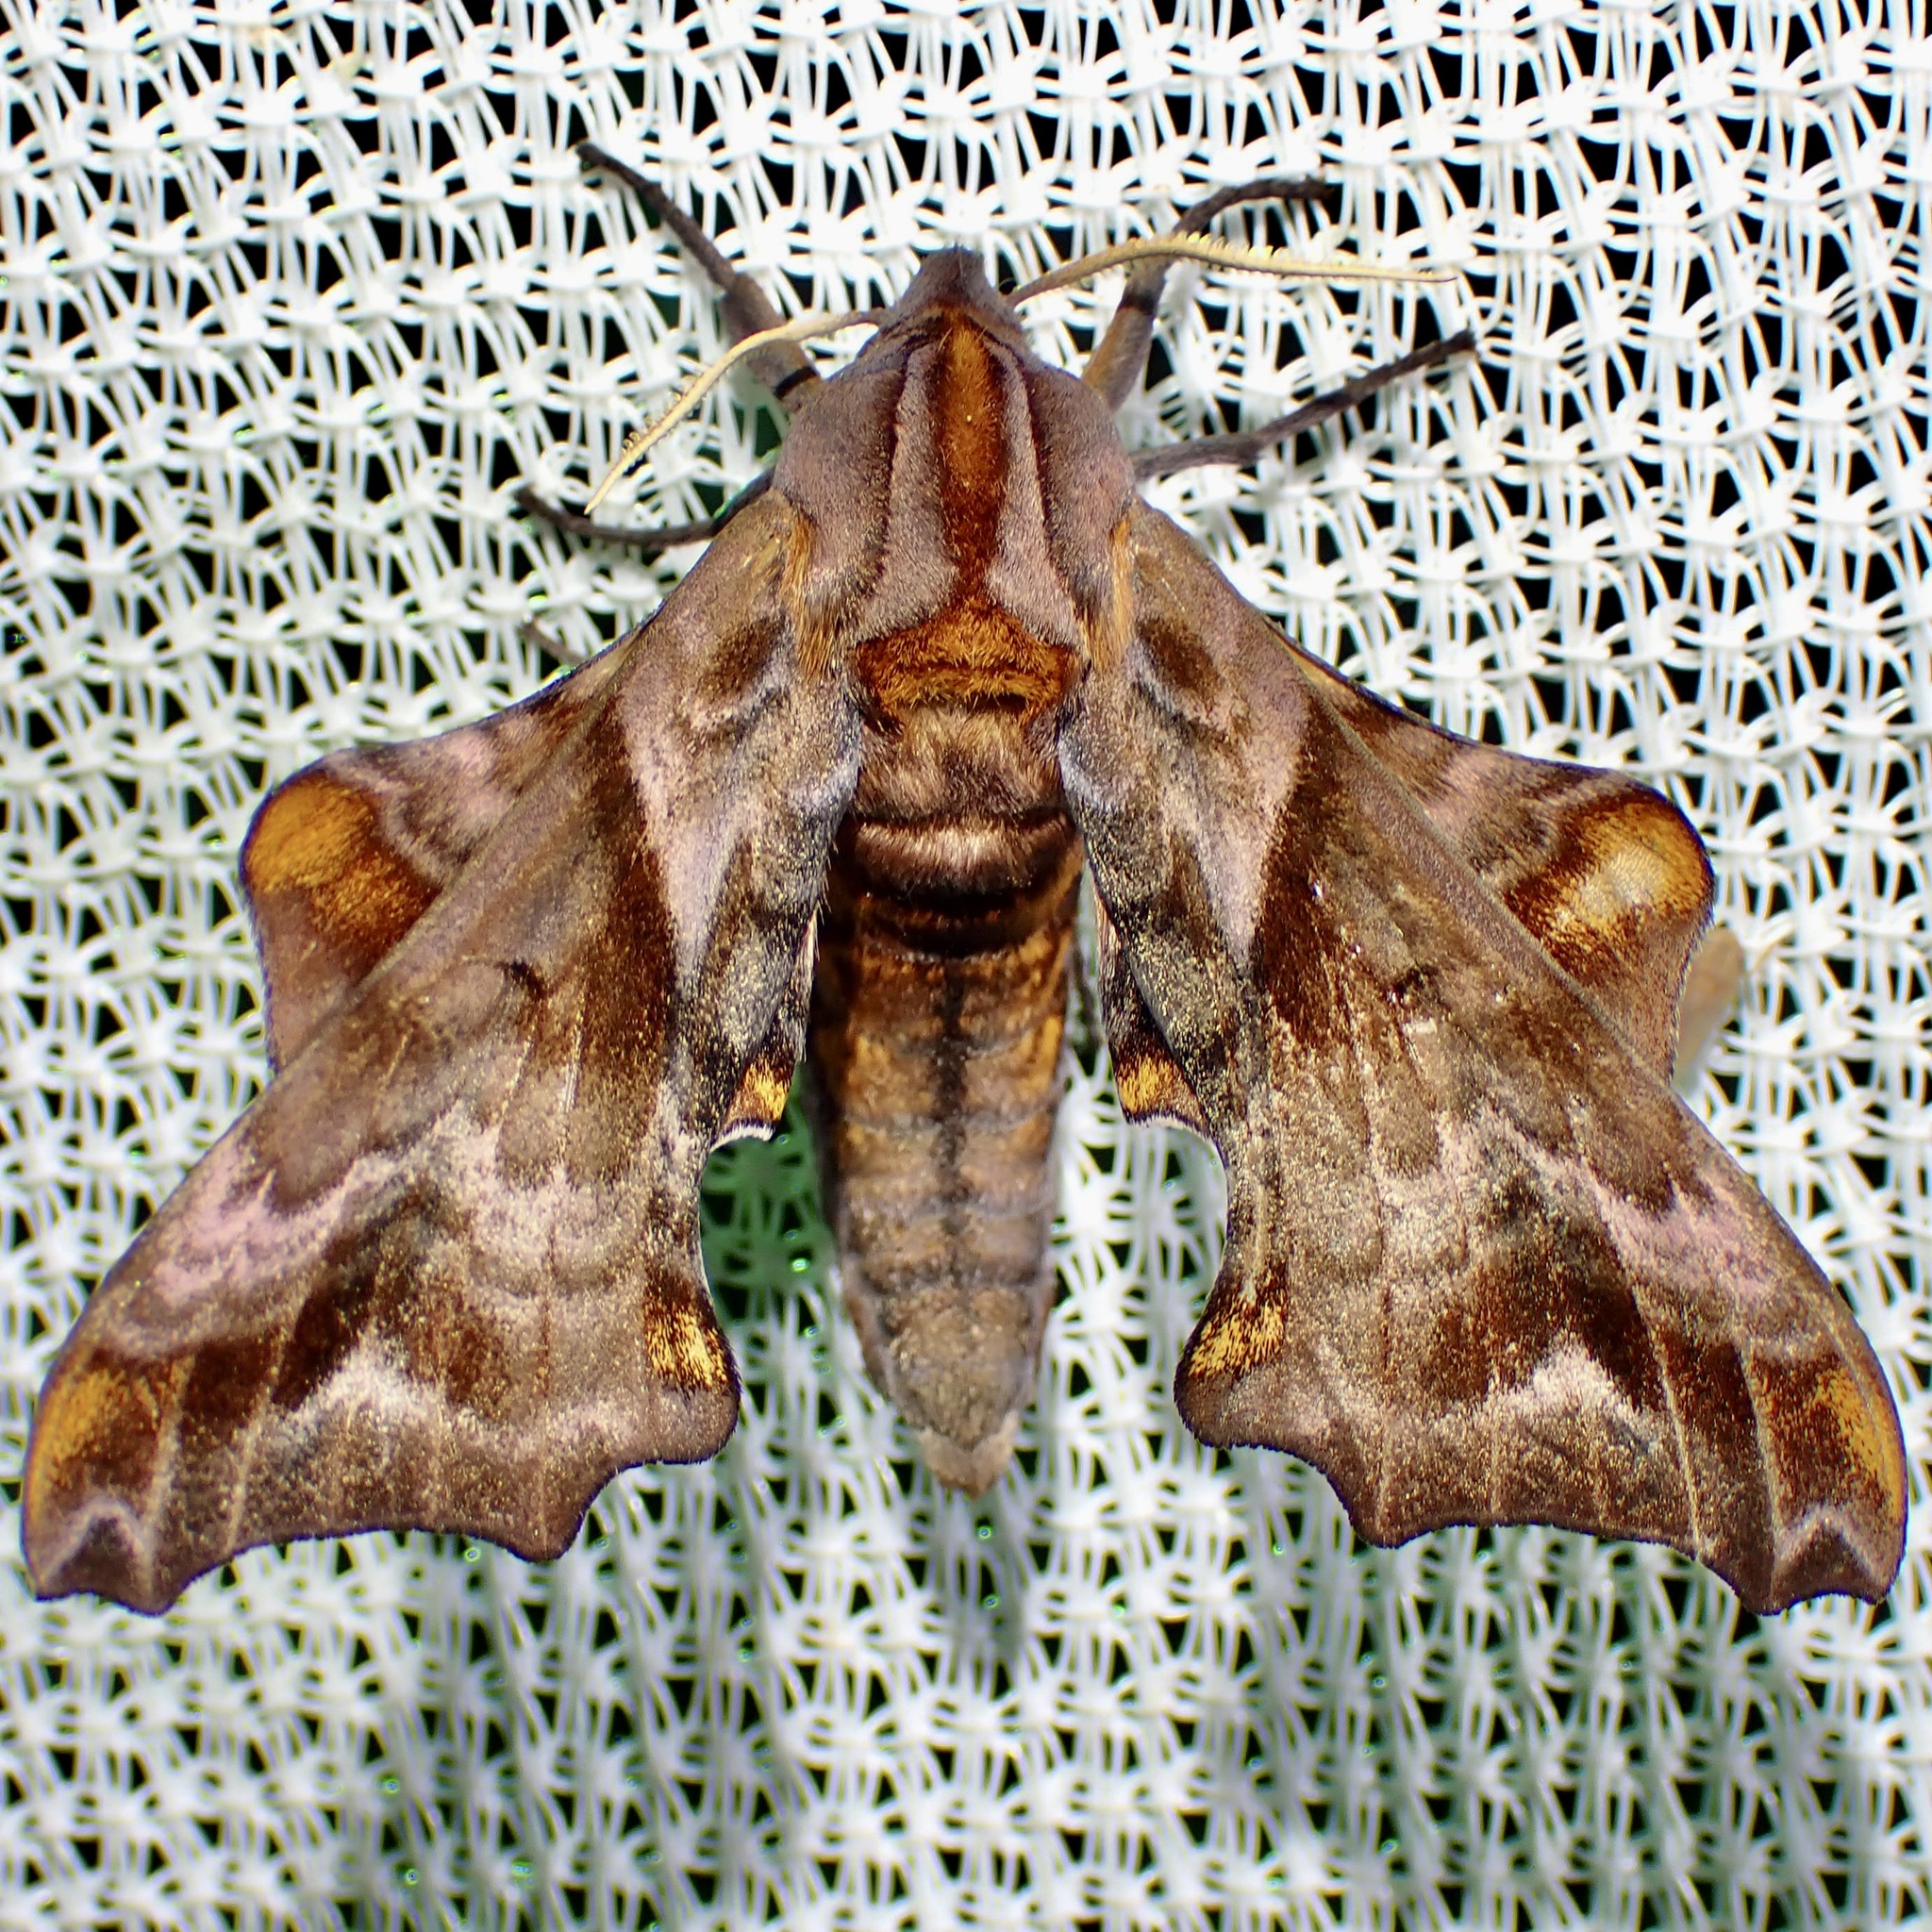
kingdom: Animalia
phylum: Arthropoda
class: Insecta
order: Lepidoptera
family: Sphingidae
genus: Paonias
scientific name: Paonias myops
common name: Small-eyed sphinx
